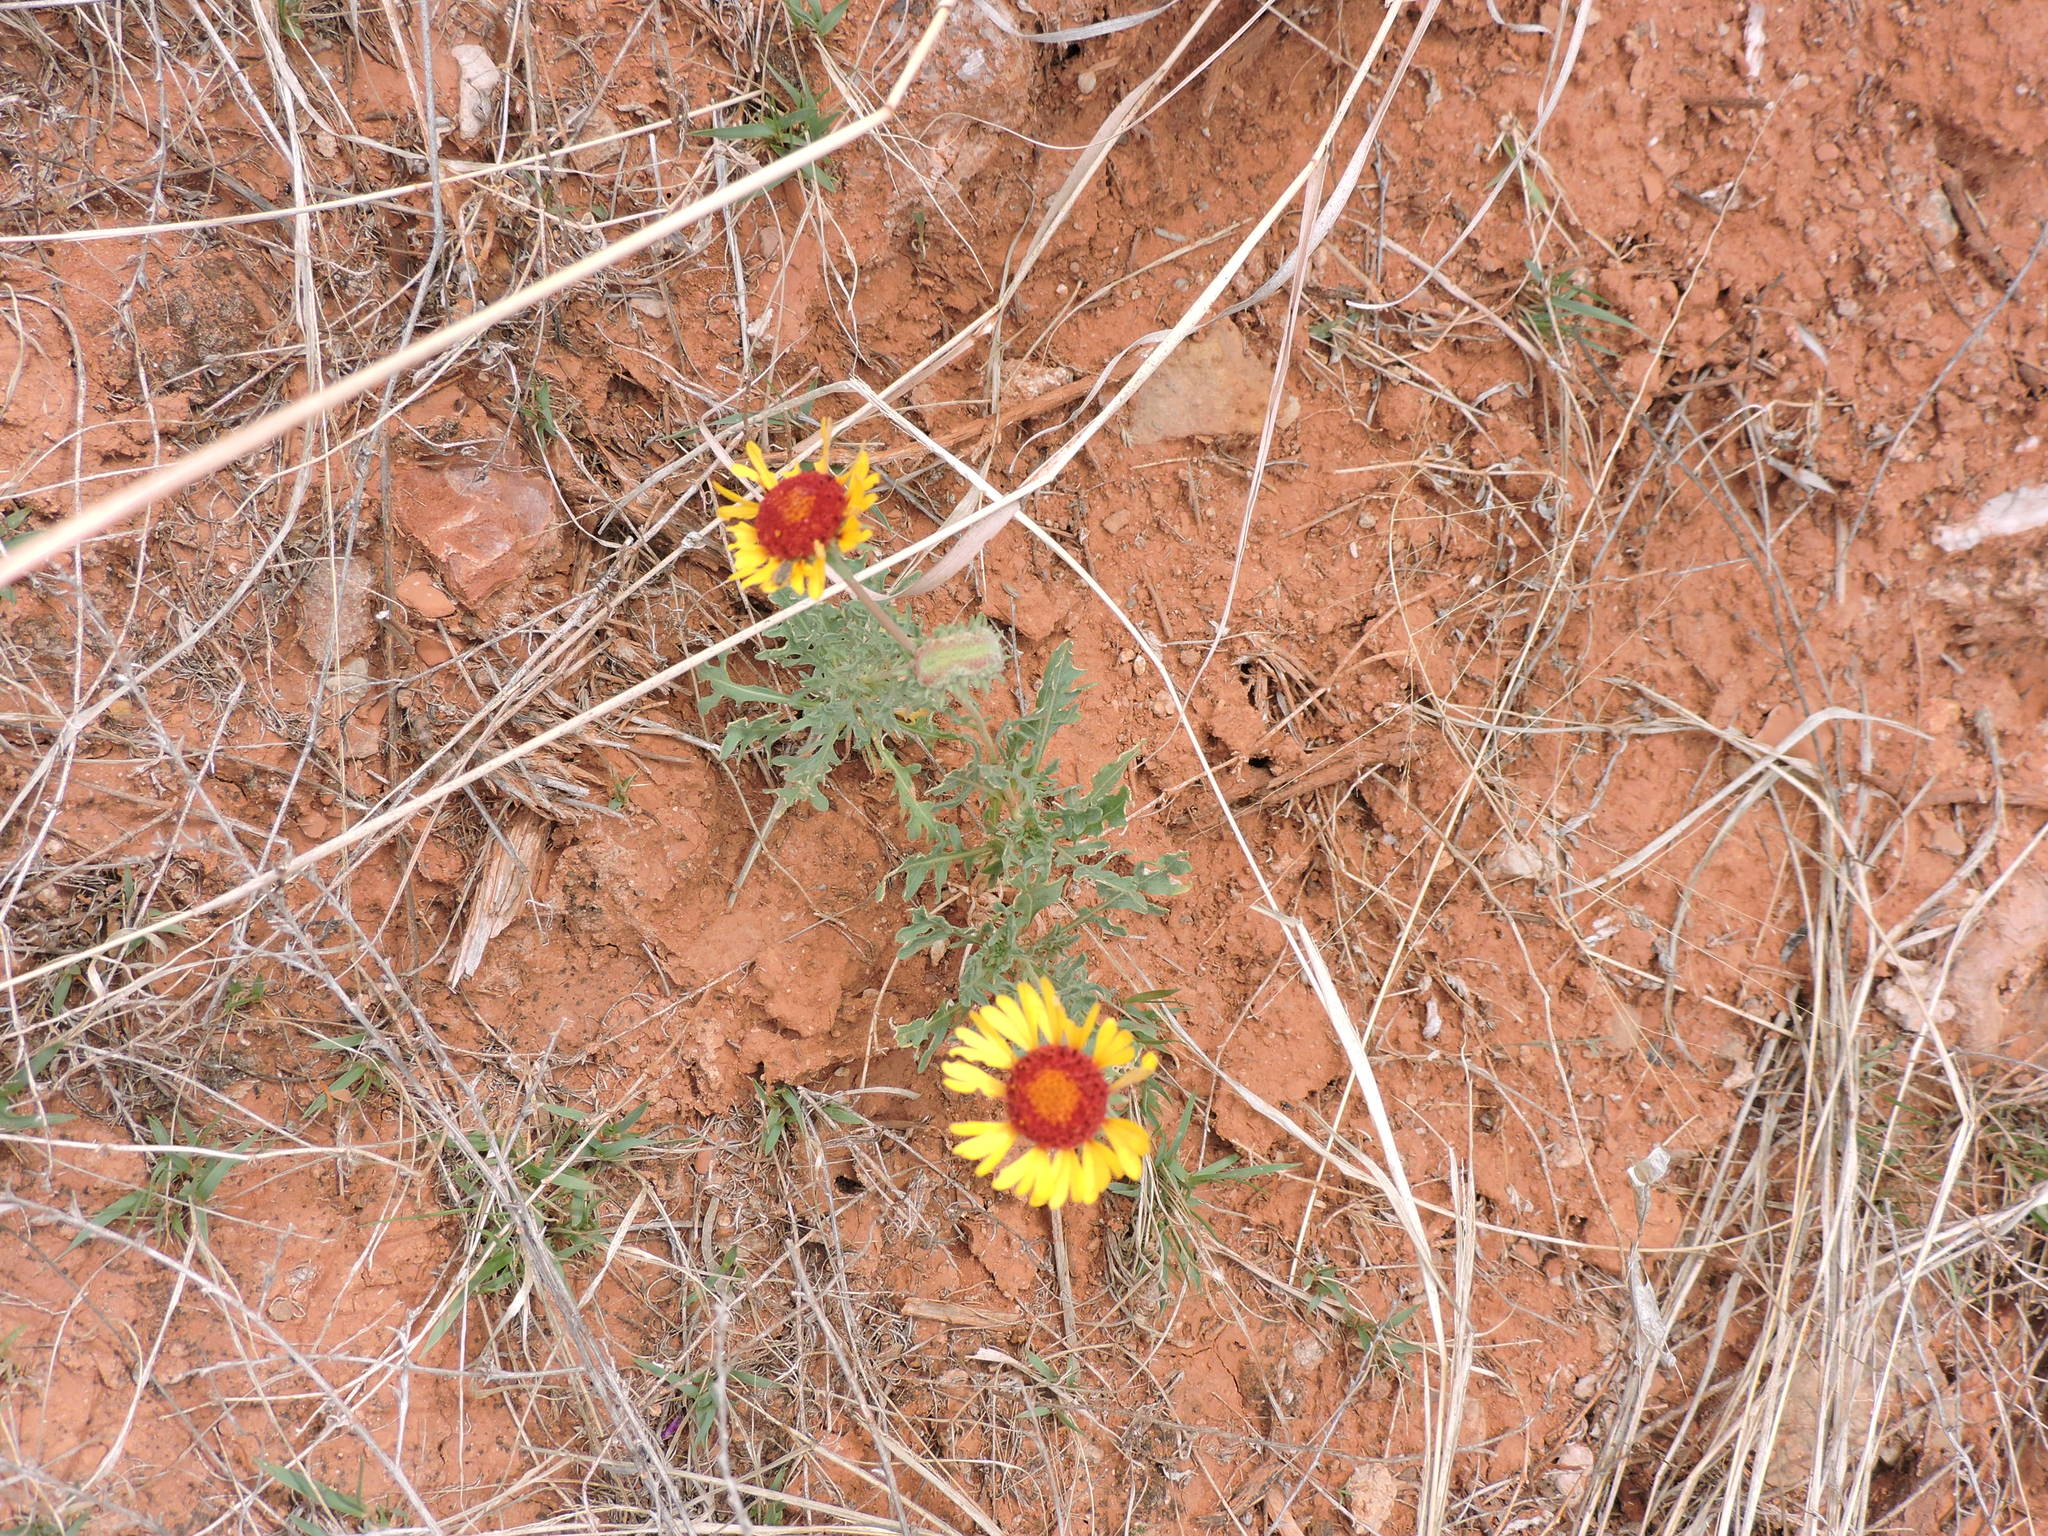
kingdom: Plantae
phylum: Tracheophyta
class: Magnoliopsida
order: Asterales
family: Asteraceae
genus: Gaillardia
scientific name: Gaillardia pinnatifida
